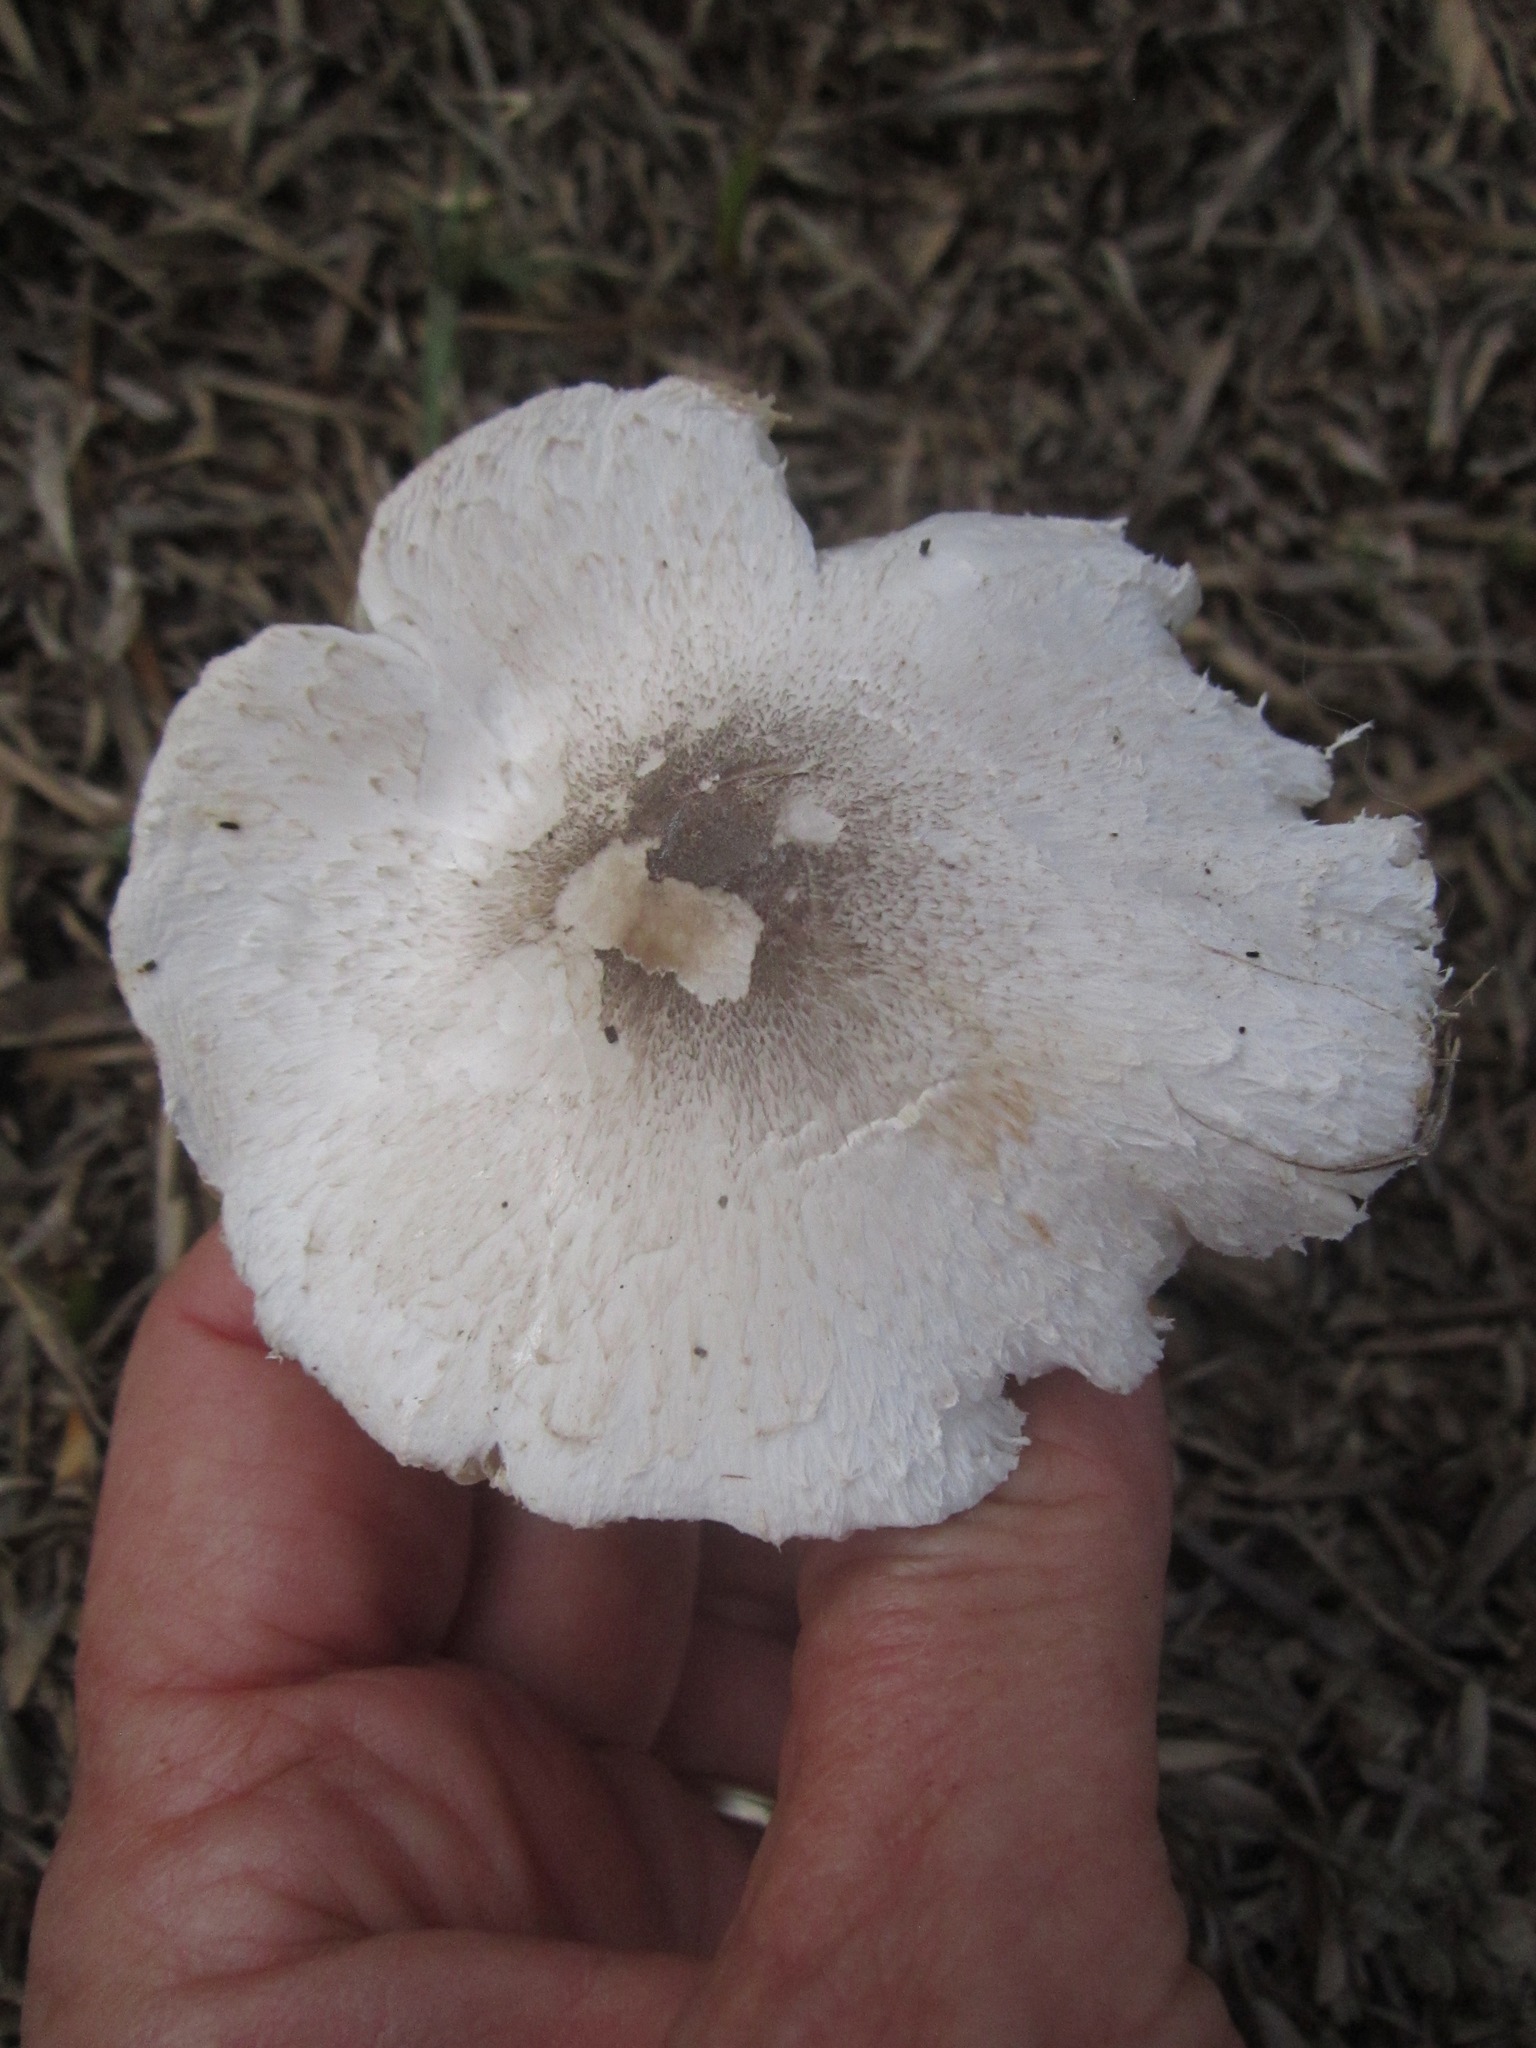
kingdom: Fungi
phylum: Basidiomycota
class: Agaricomycetes
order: Agaricales
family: Agaricaceae
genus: Leucoagaricus
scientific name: Leucoagaricus barssii
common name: Smoky dapperling
